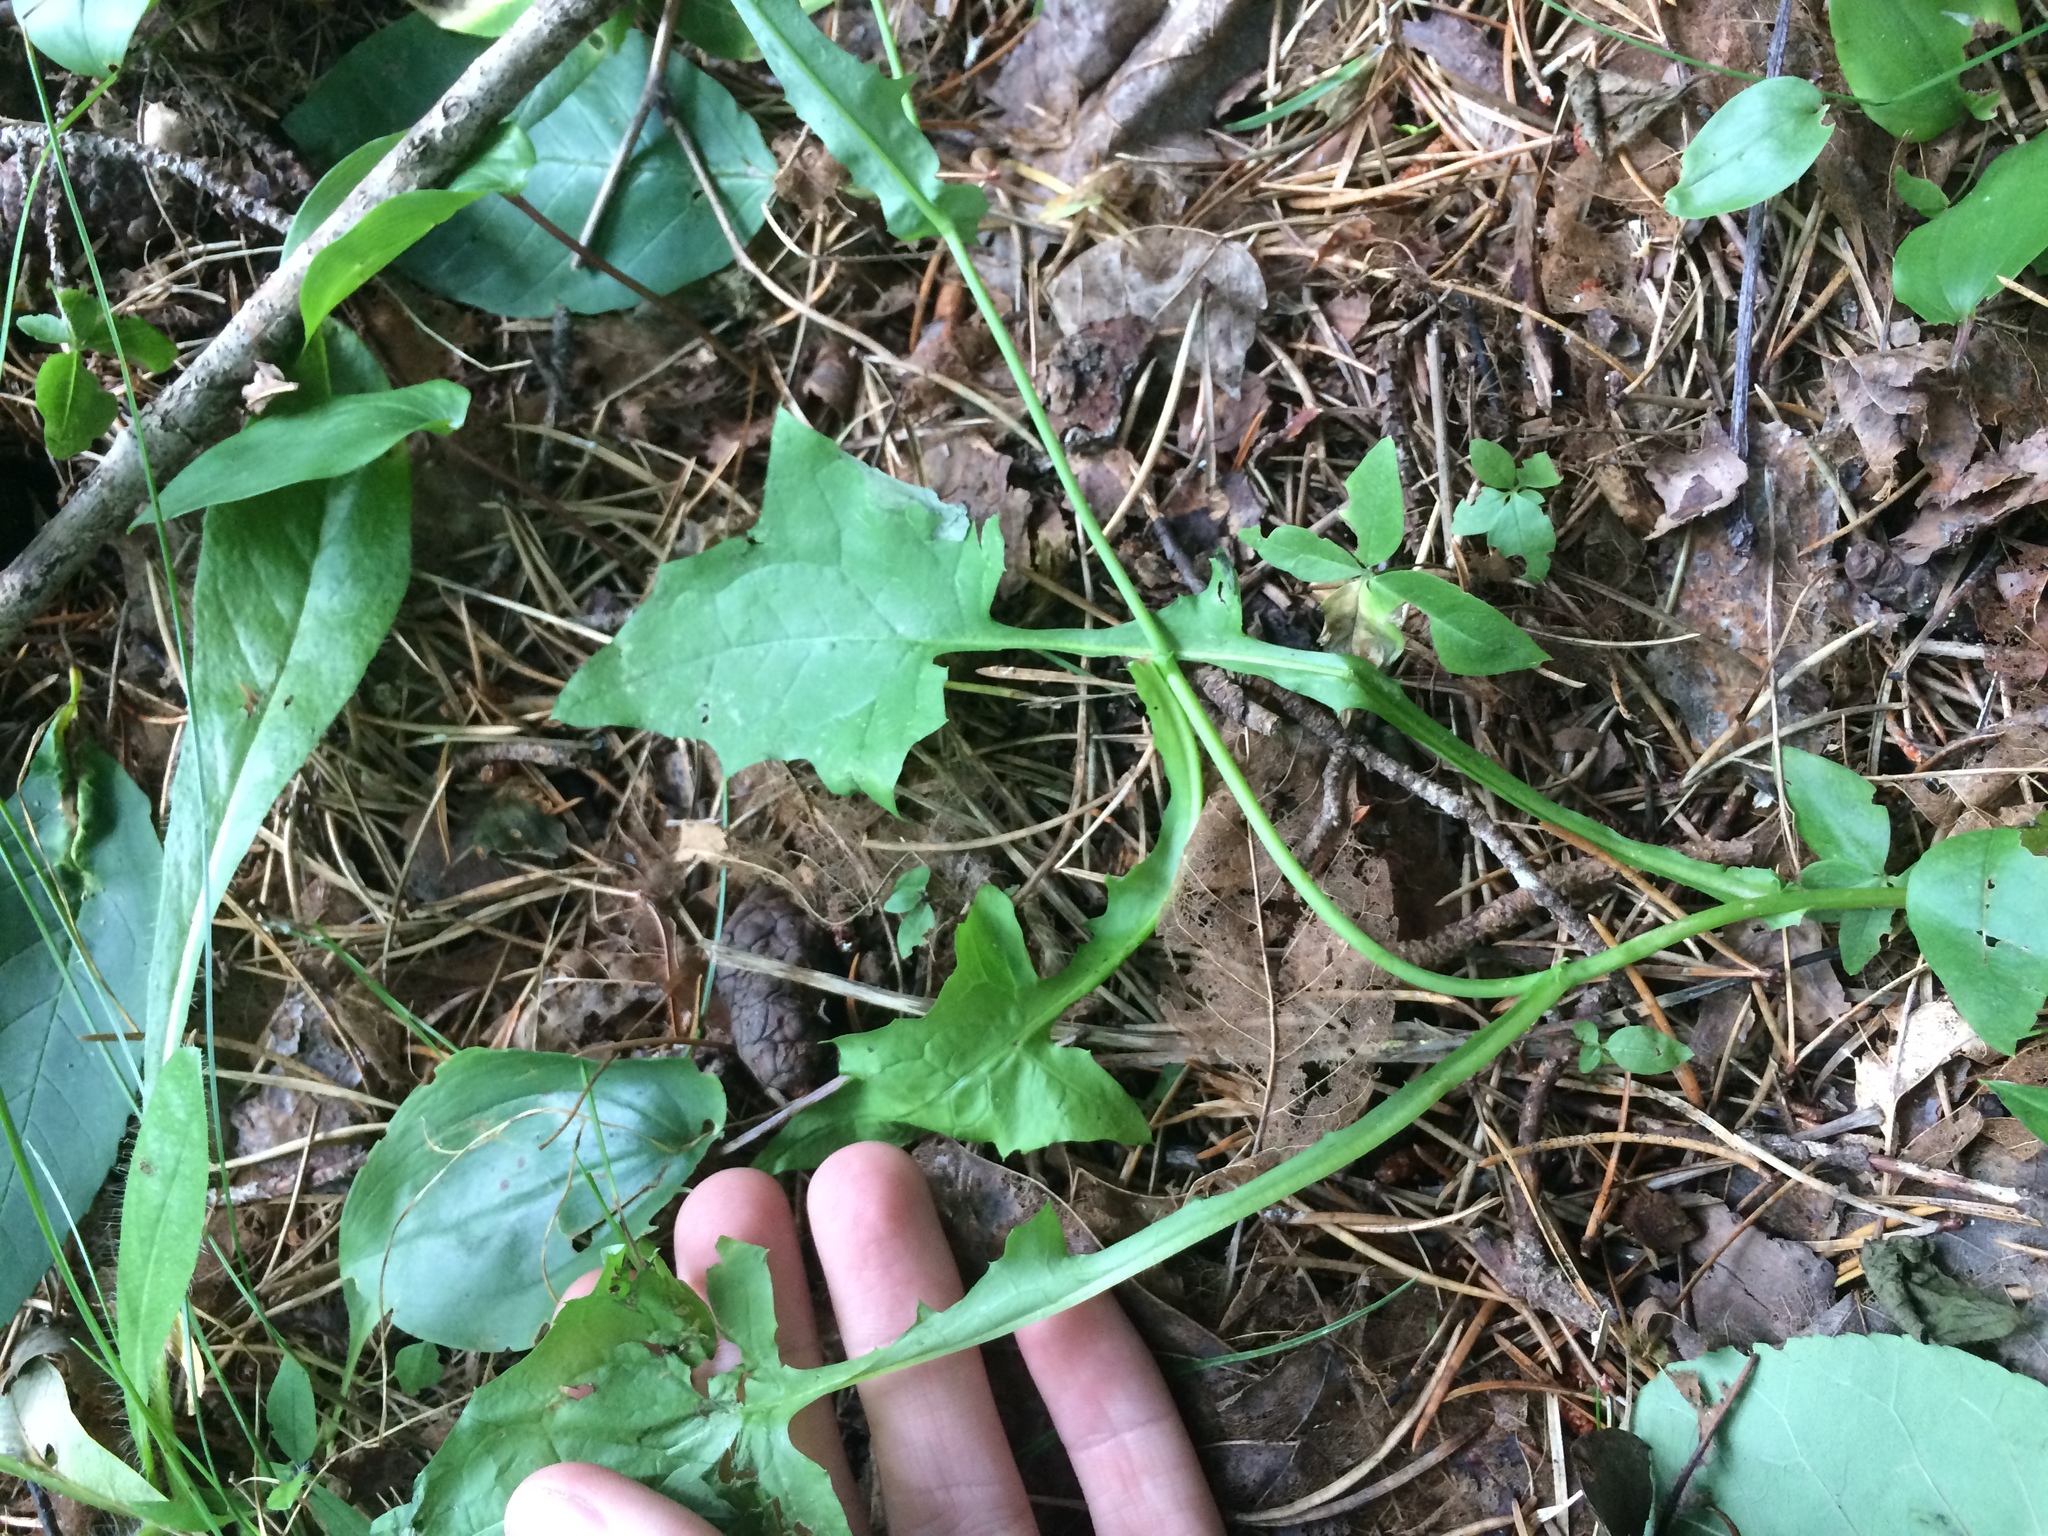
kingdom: Plantae
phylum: Tracheophyta
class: Magnoliopsida
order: Asterales
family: Asteraceae
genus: Mycelis
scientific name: Mycelis muralis
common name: Wall lettuce
